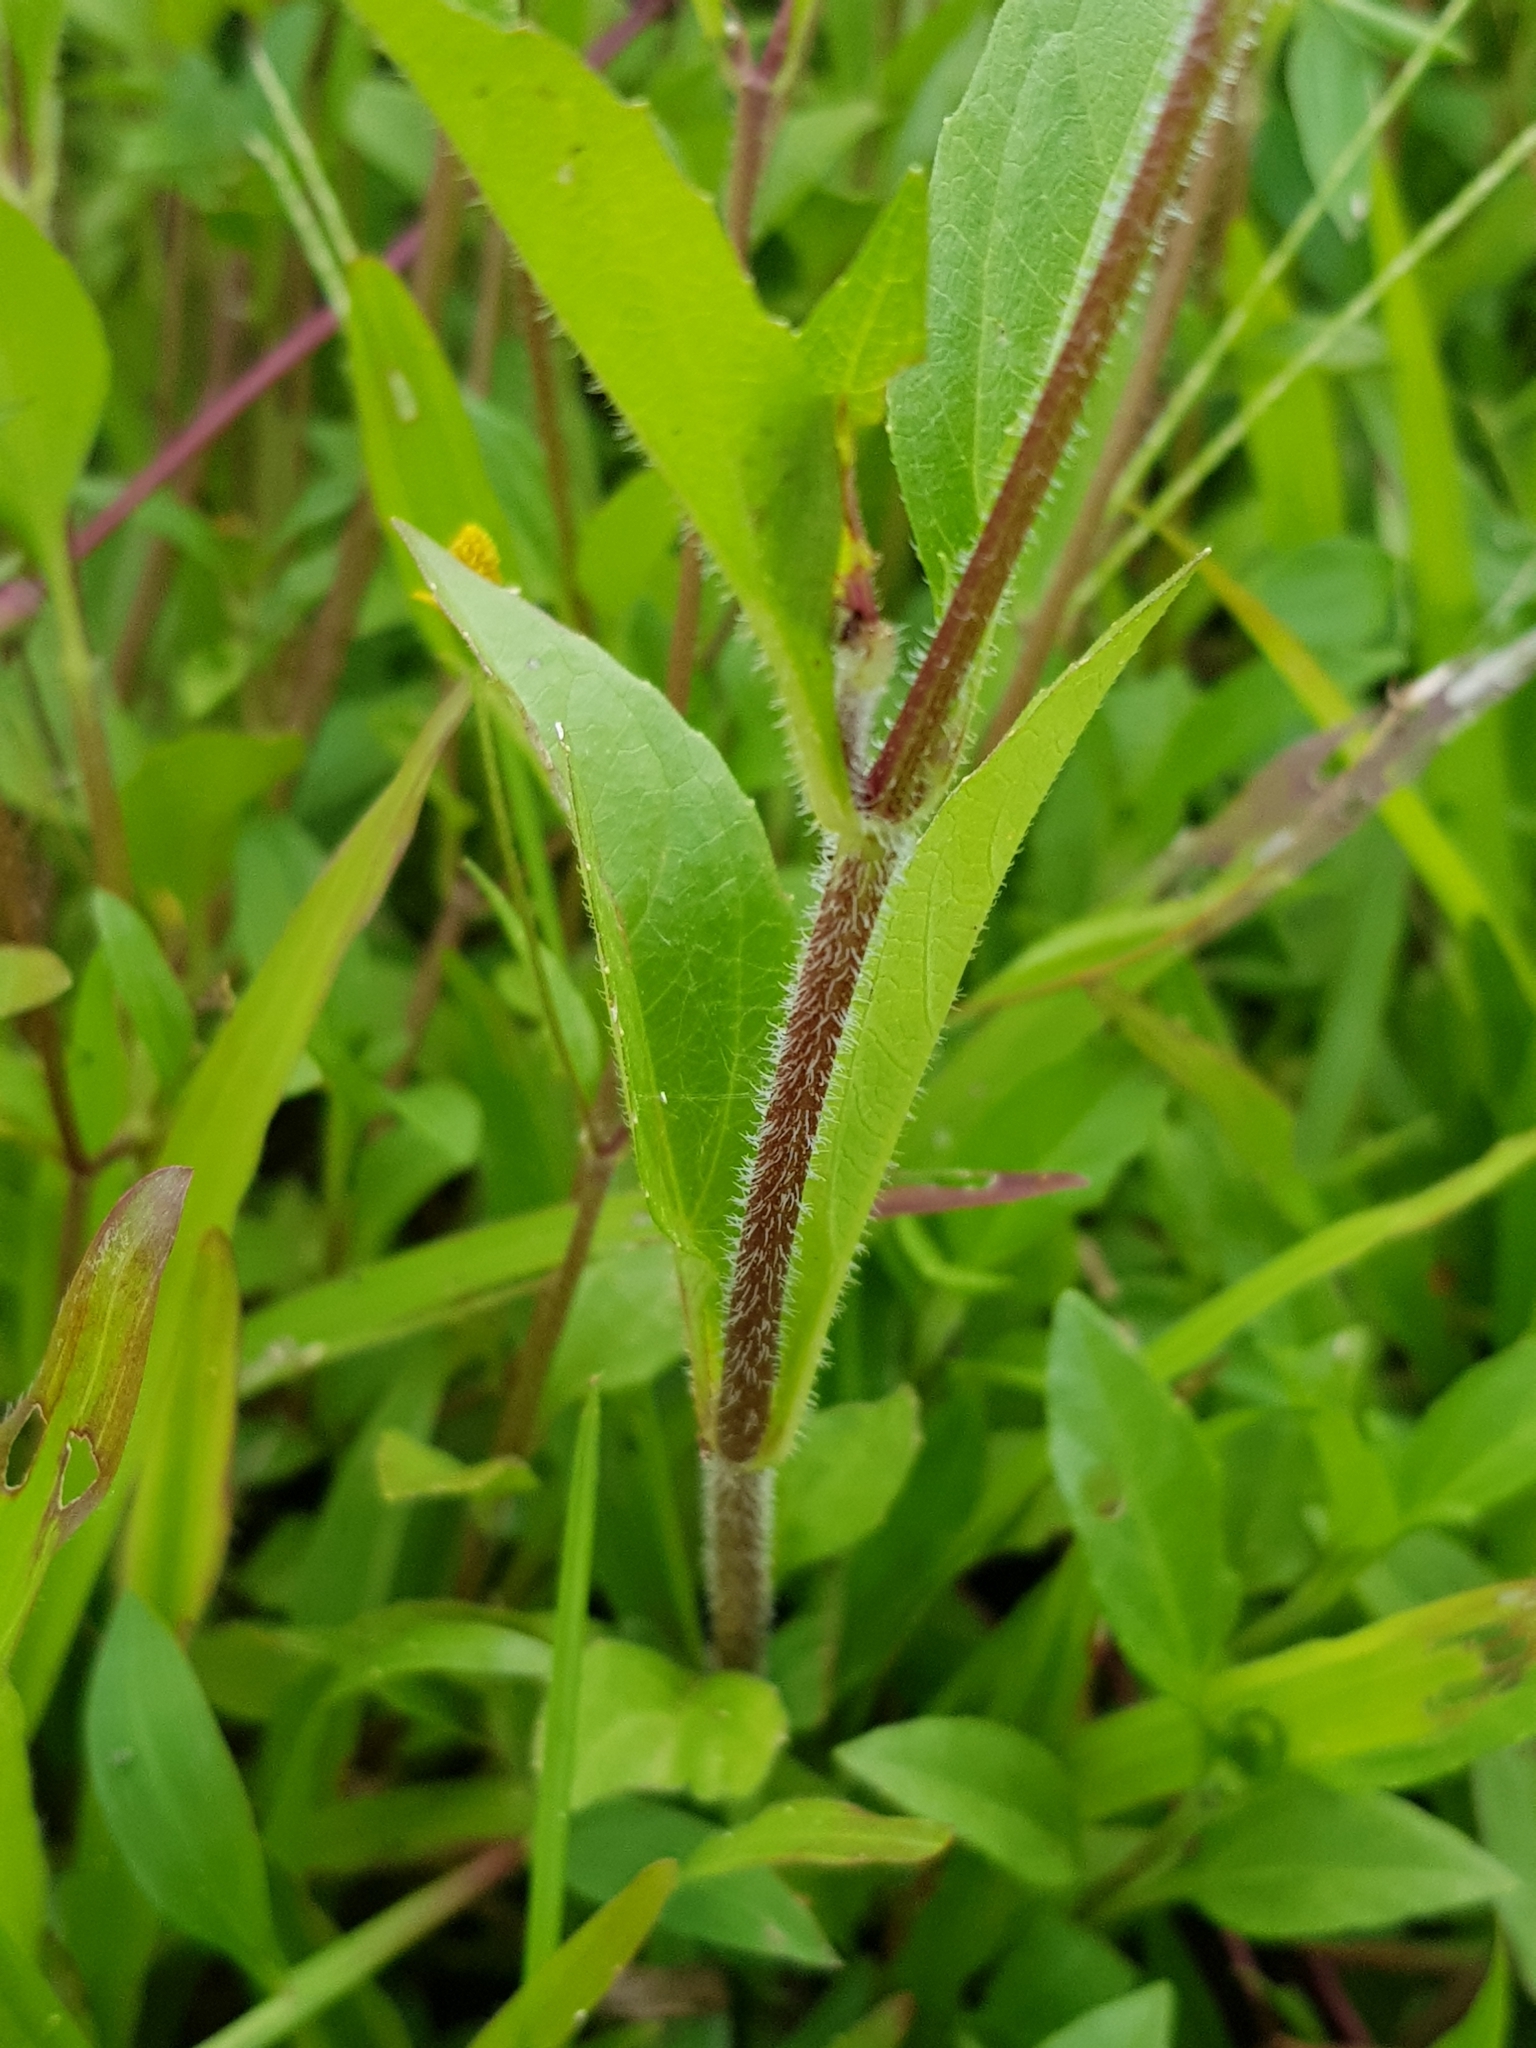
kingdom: Plantae
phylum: Tracheophyta
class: Magnoliopsida
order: Asterales
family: Asteraceae
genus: Acmella
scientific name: Acmella uliginosa
